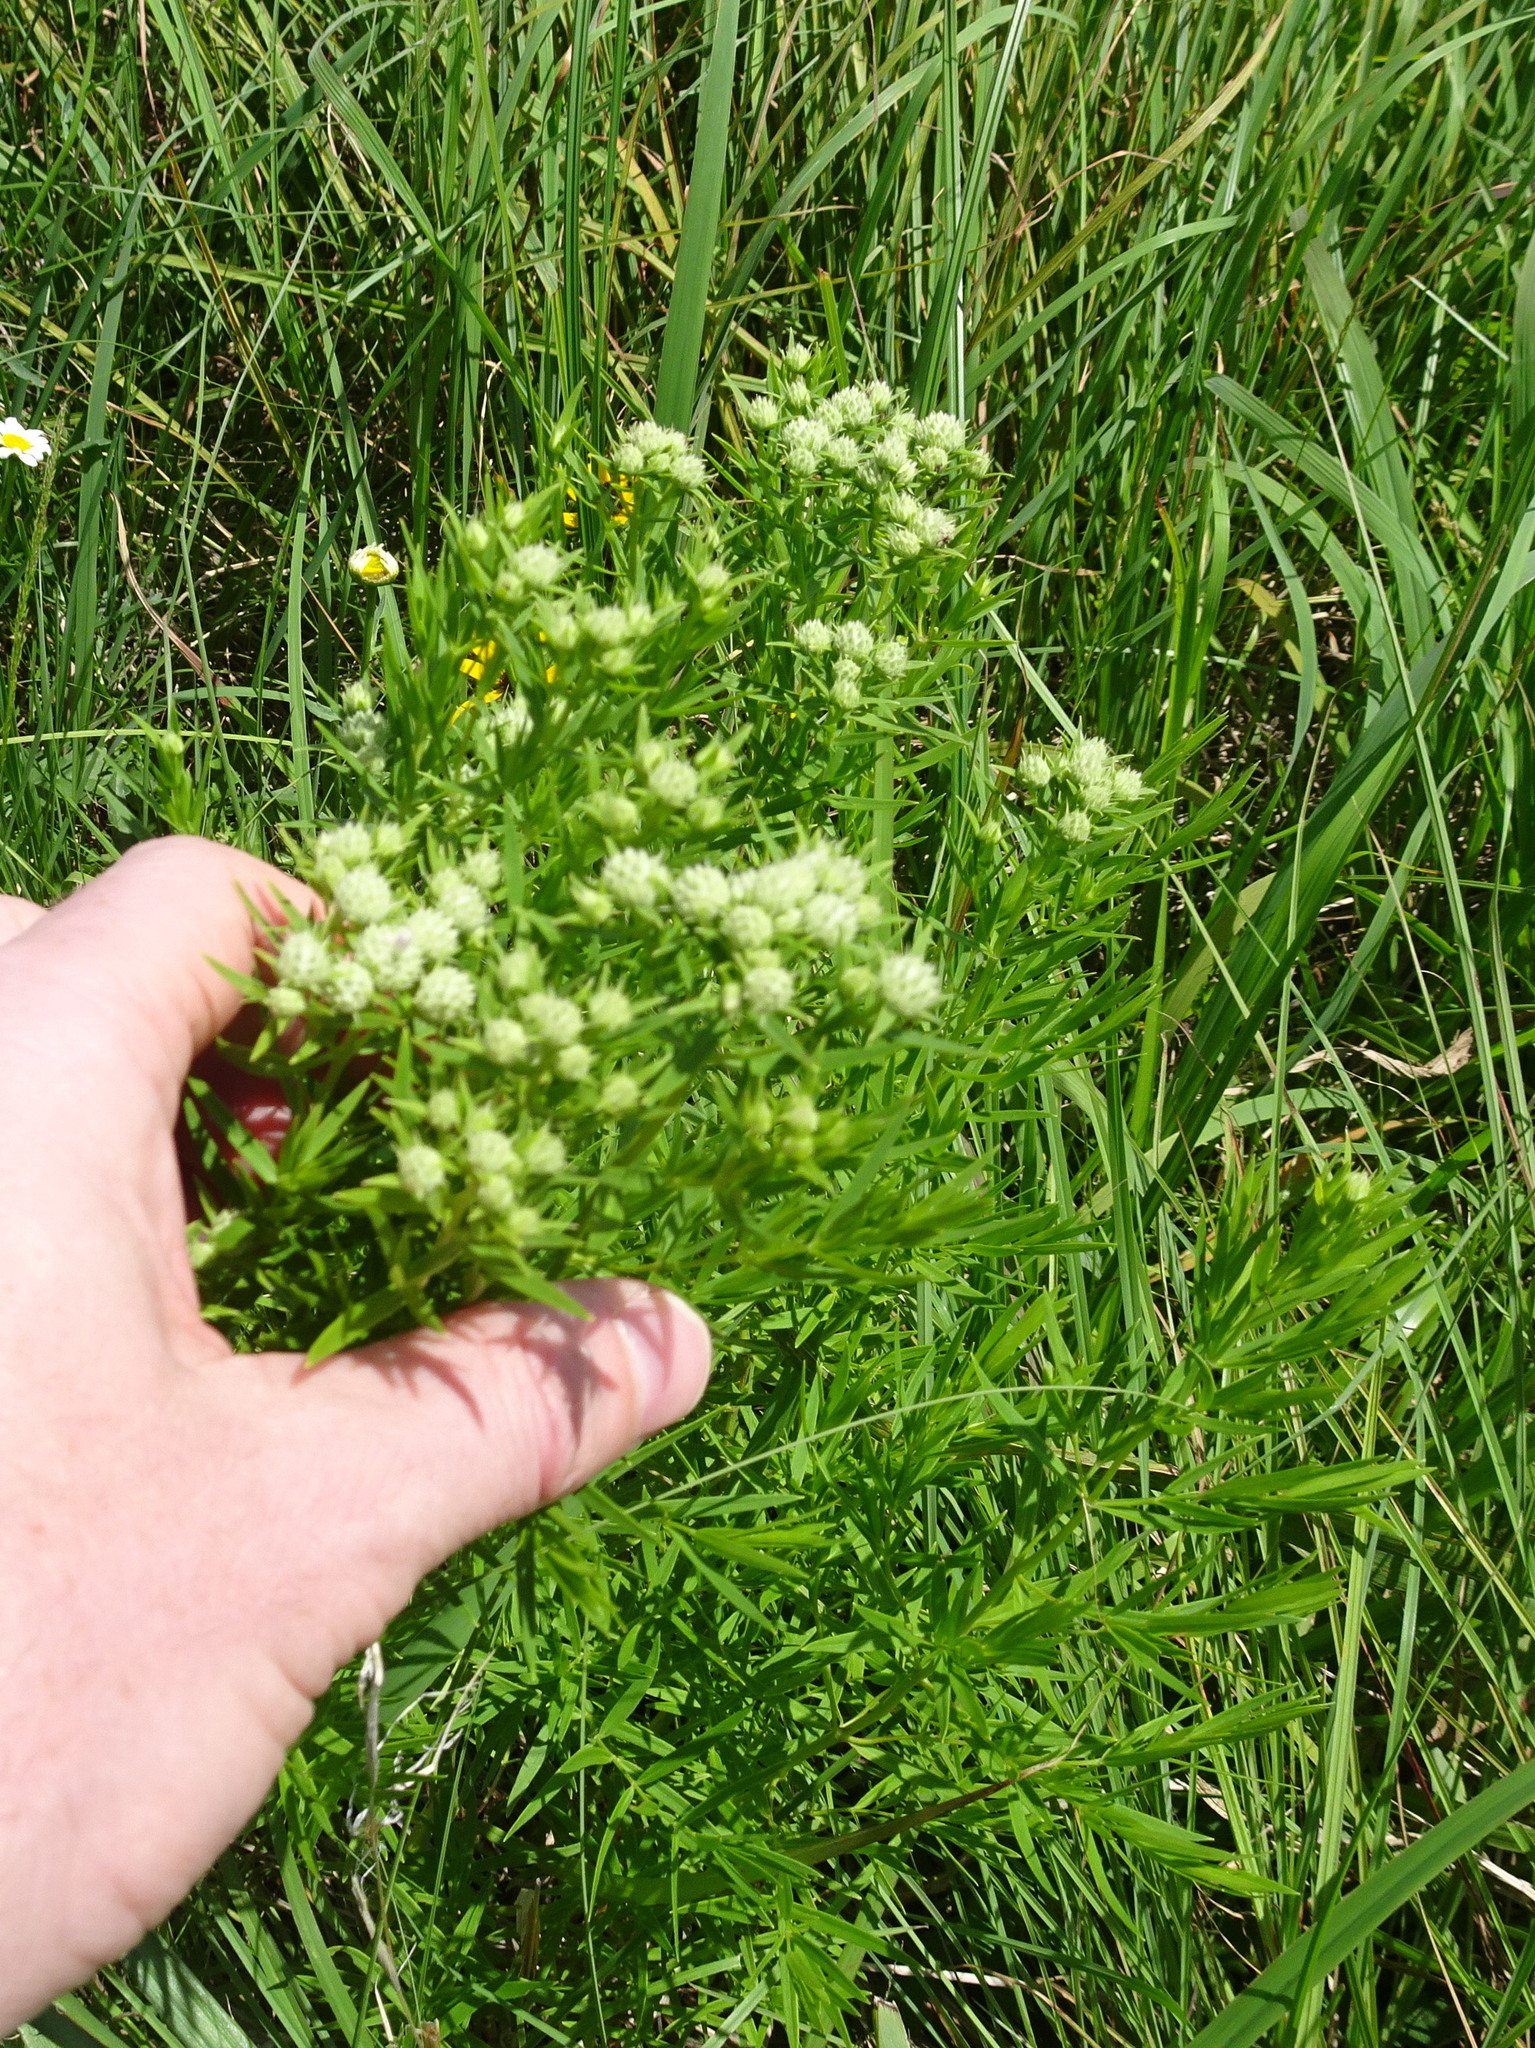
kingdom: Plantae
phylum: Tracheophyta
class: Magnoliopsida
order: Lamiales
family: Lamiaceae
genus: Pycnanthemum
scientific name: Pycnanthemum tenuifolium
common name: Narrow-leaf mountain-mint
